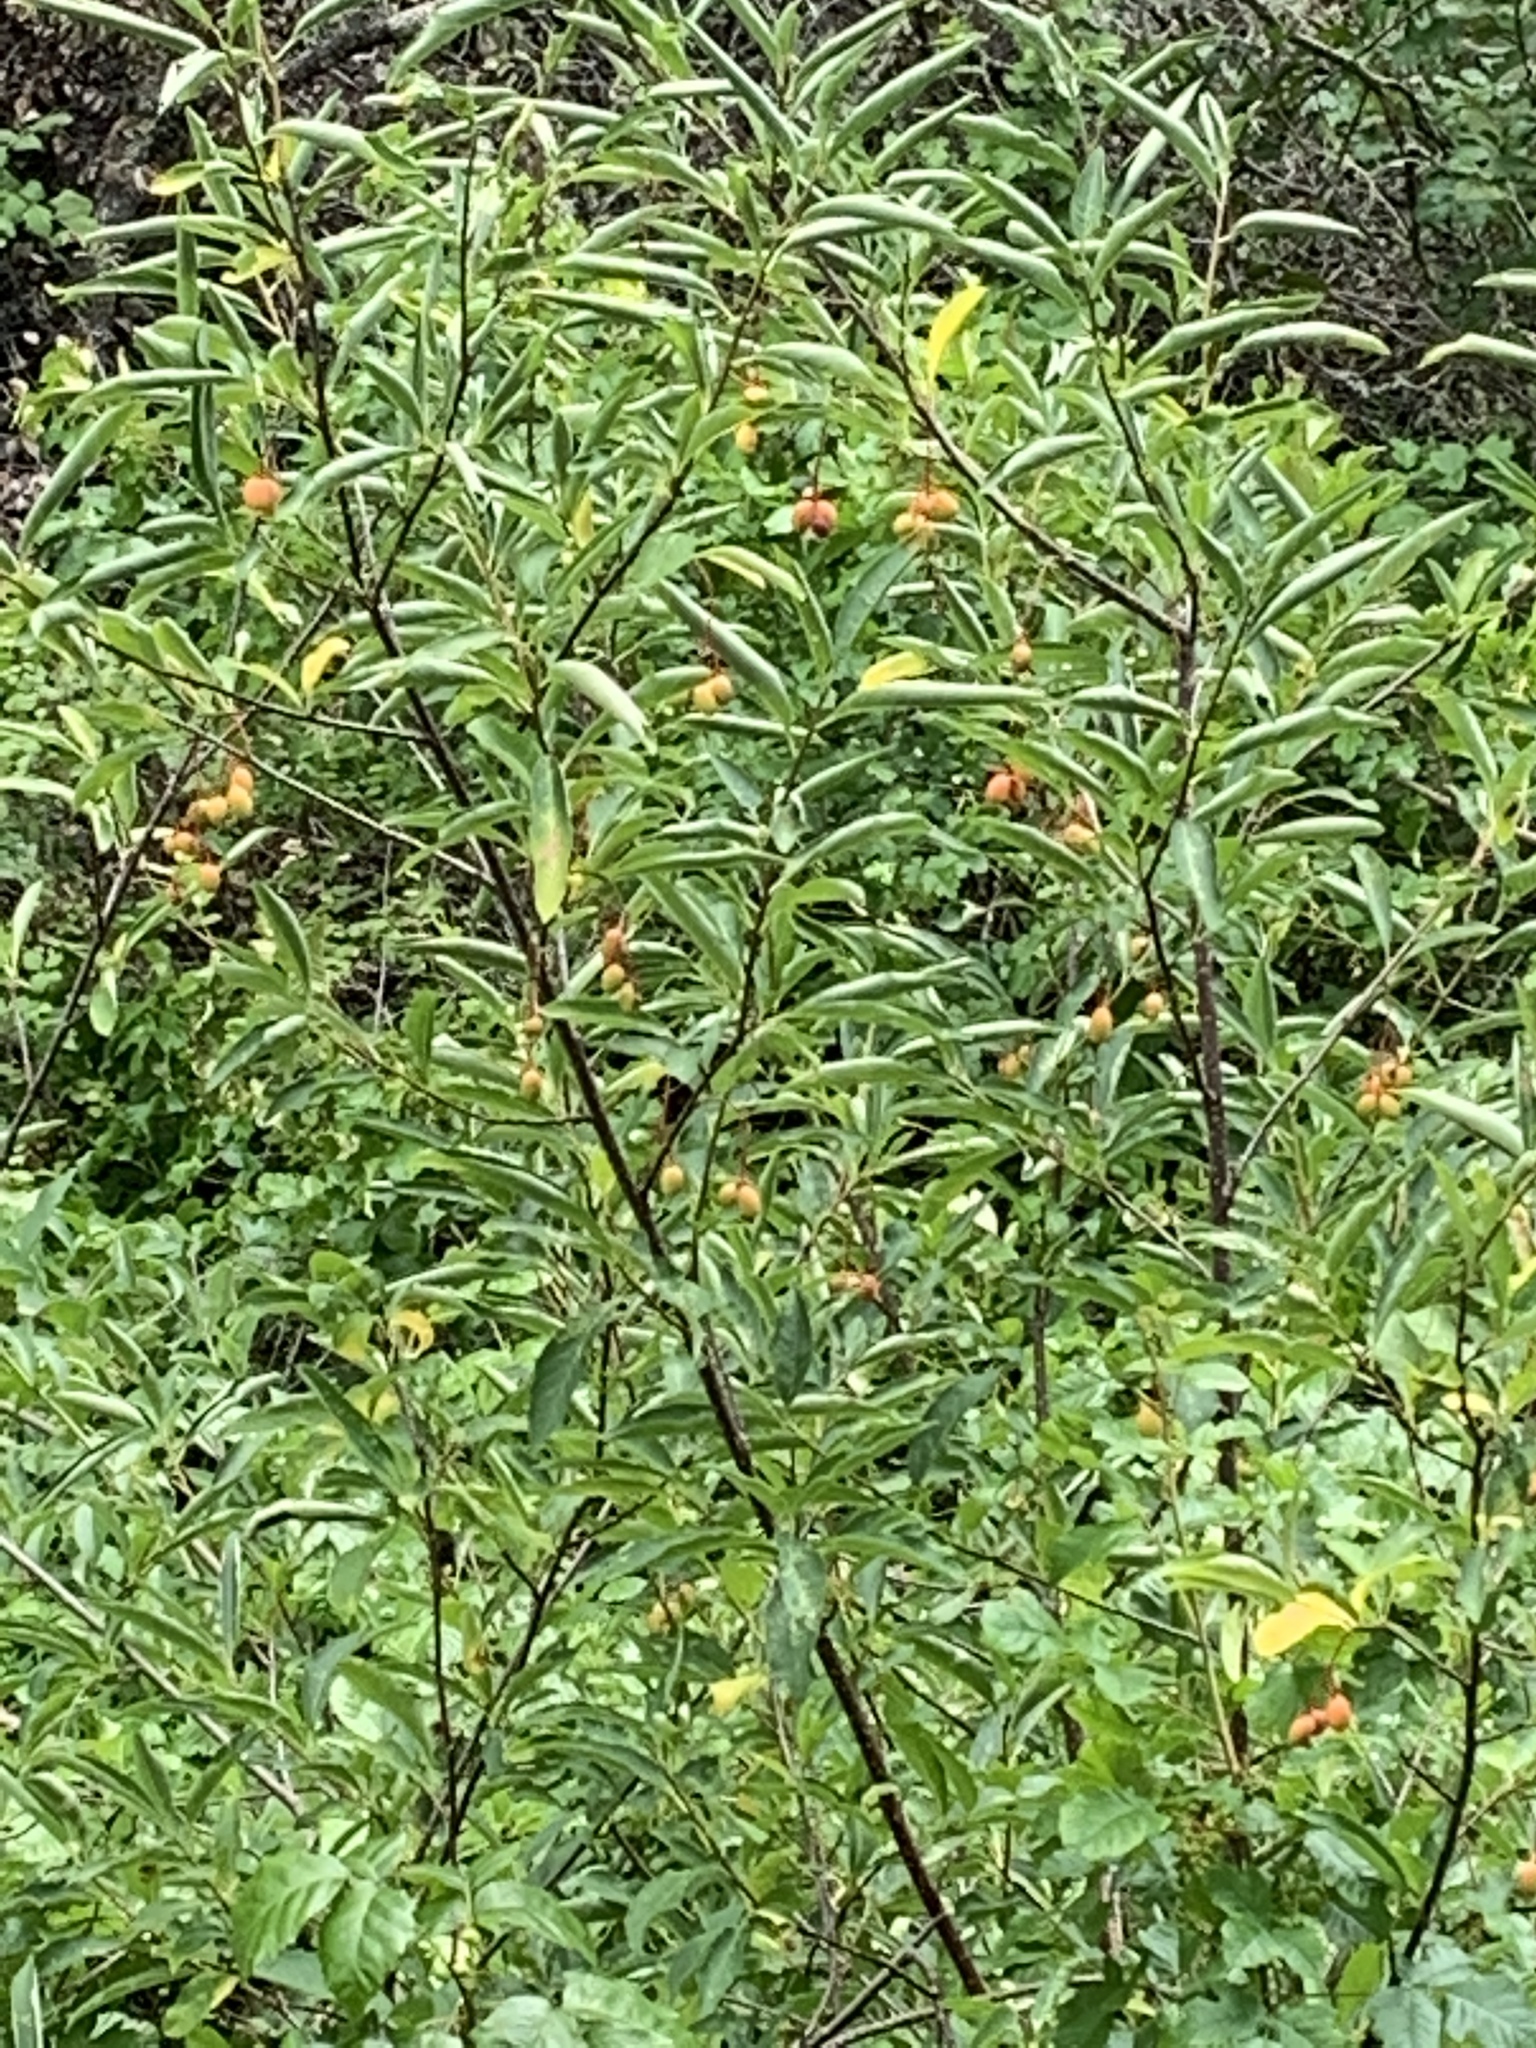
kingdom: Plantae
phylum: Tracheophyta
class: Magnoliopsida
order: Rosales
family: Rosaceae
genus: Oemleria
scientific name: Oemleria cerasiformis
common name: Osoberry
